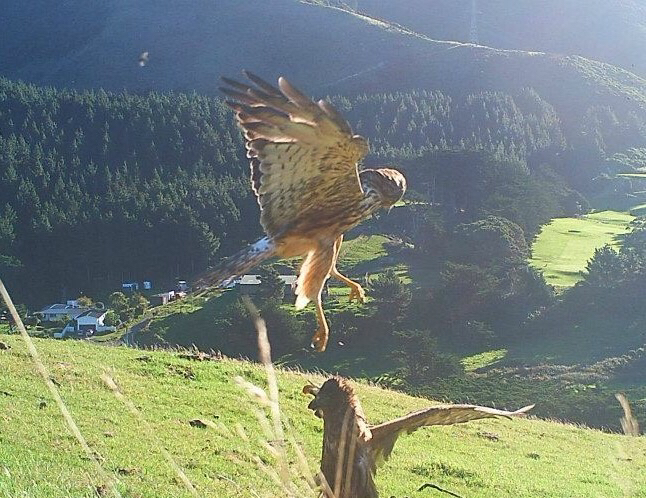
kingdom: Animalia
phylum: Chordata
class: Aves
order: Accipitriformes
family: Accipitridae
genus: Circus
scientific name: Circus approximans
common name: Swamp harrier
